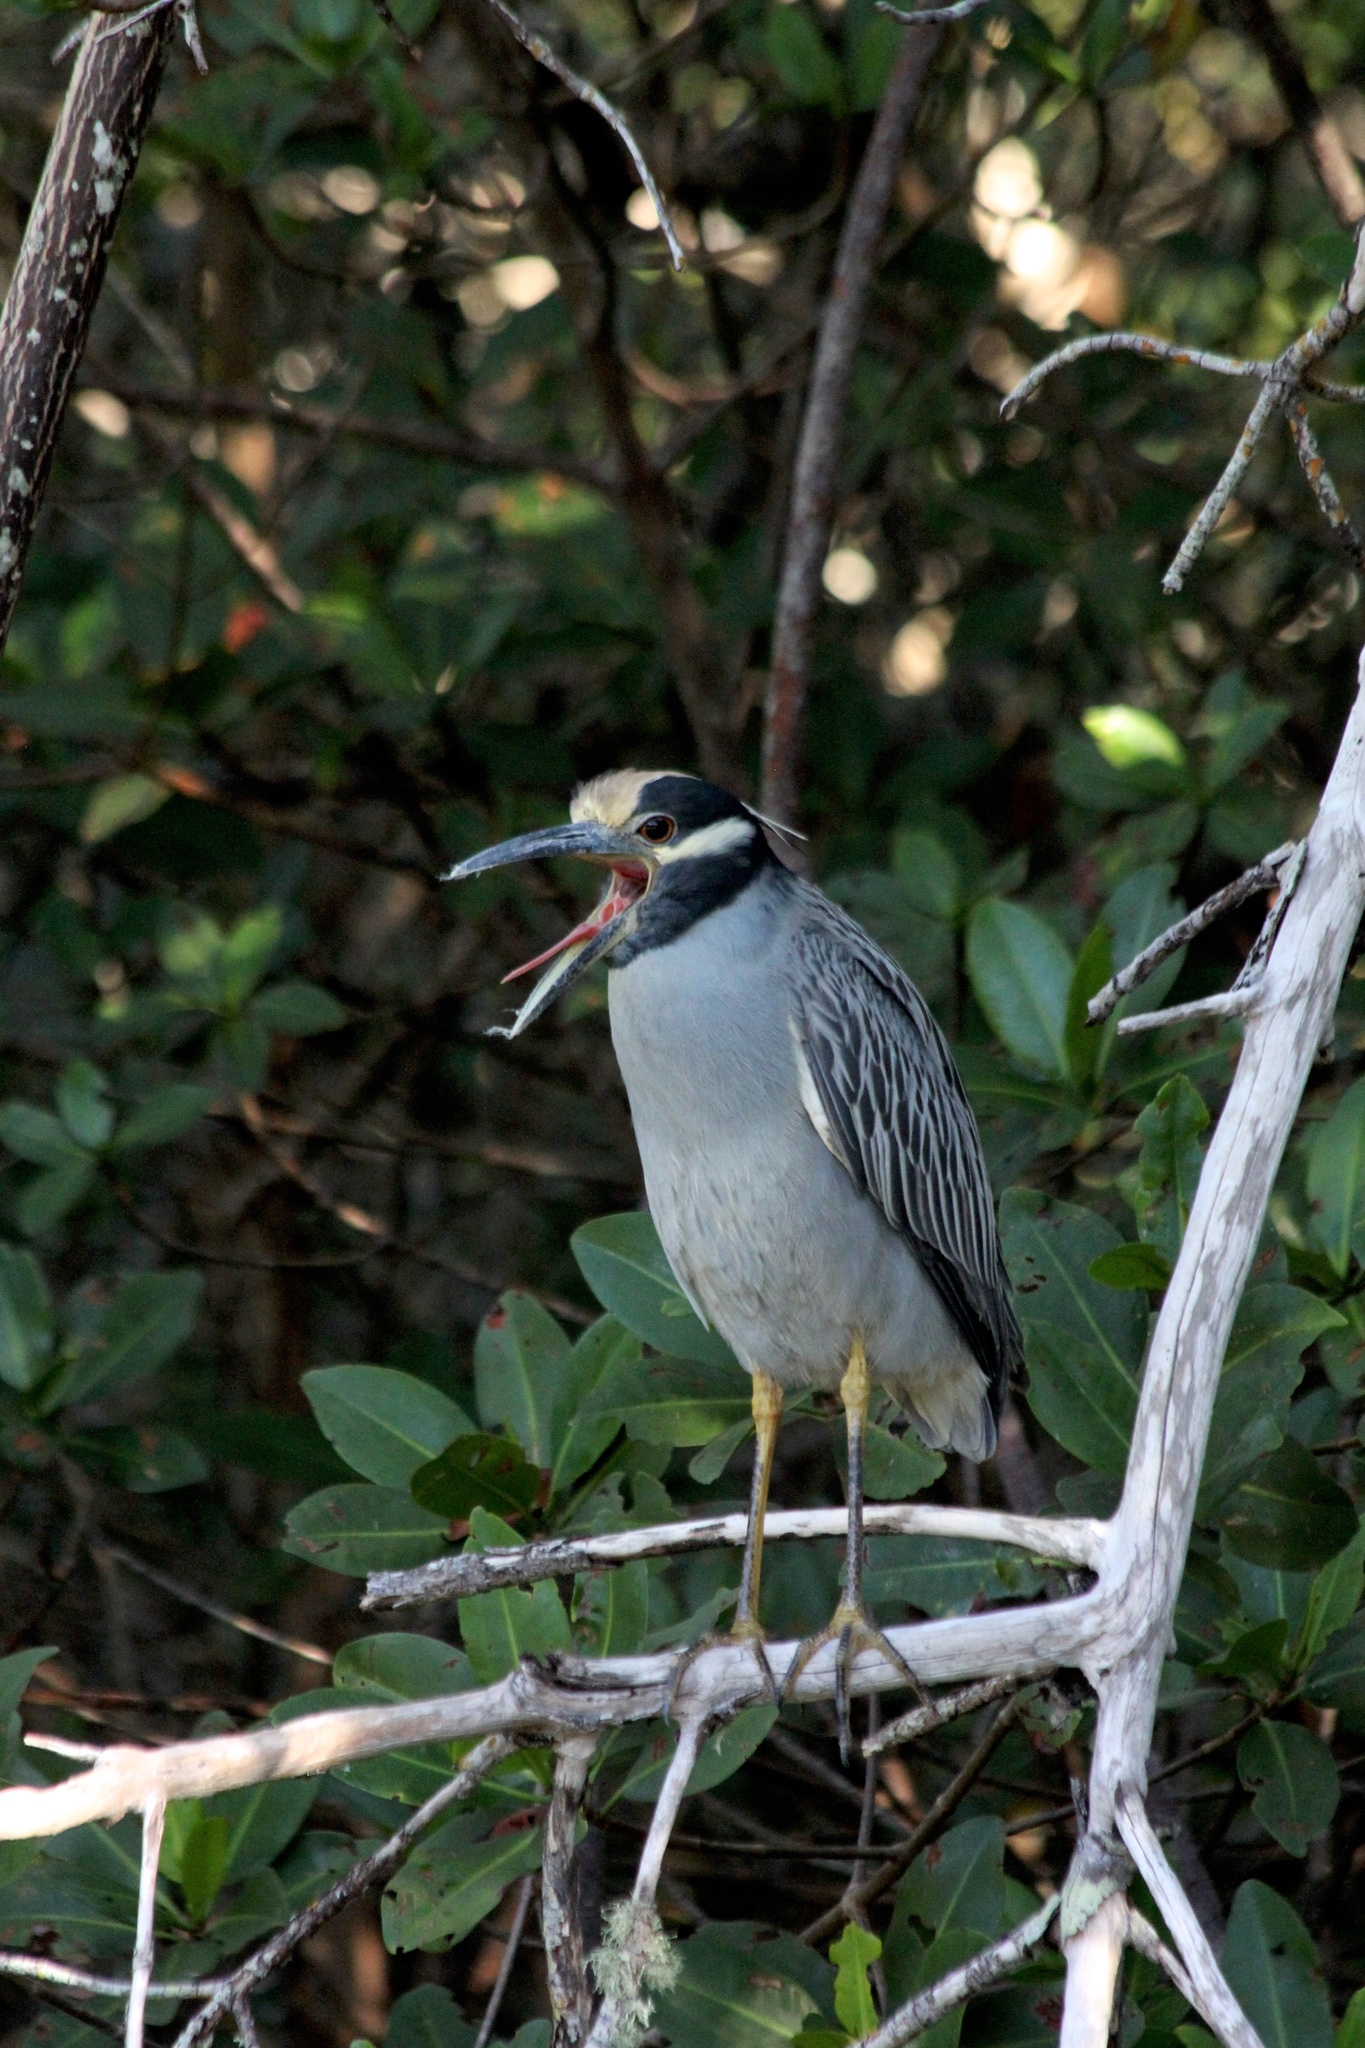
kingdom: Animalia
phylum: Chordata
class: Aves
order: Pelecaniformes
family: Ardeidae
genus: Nyctanassa
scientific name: Nyctanassa violacea
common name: Yellow-crowned night heron
